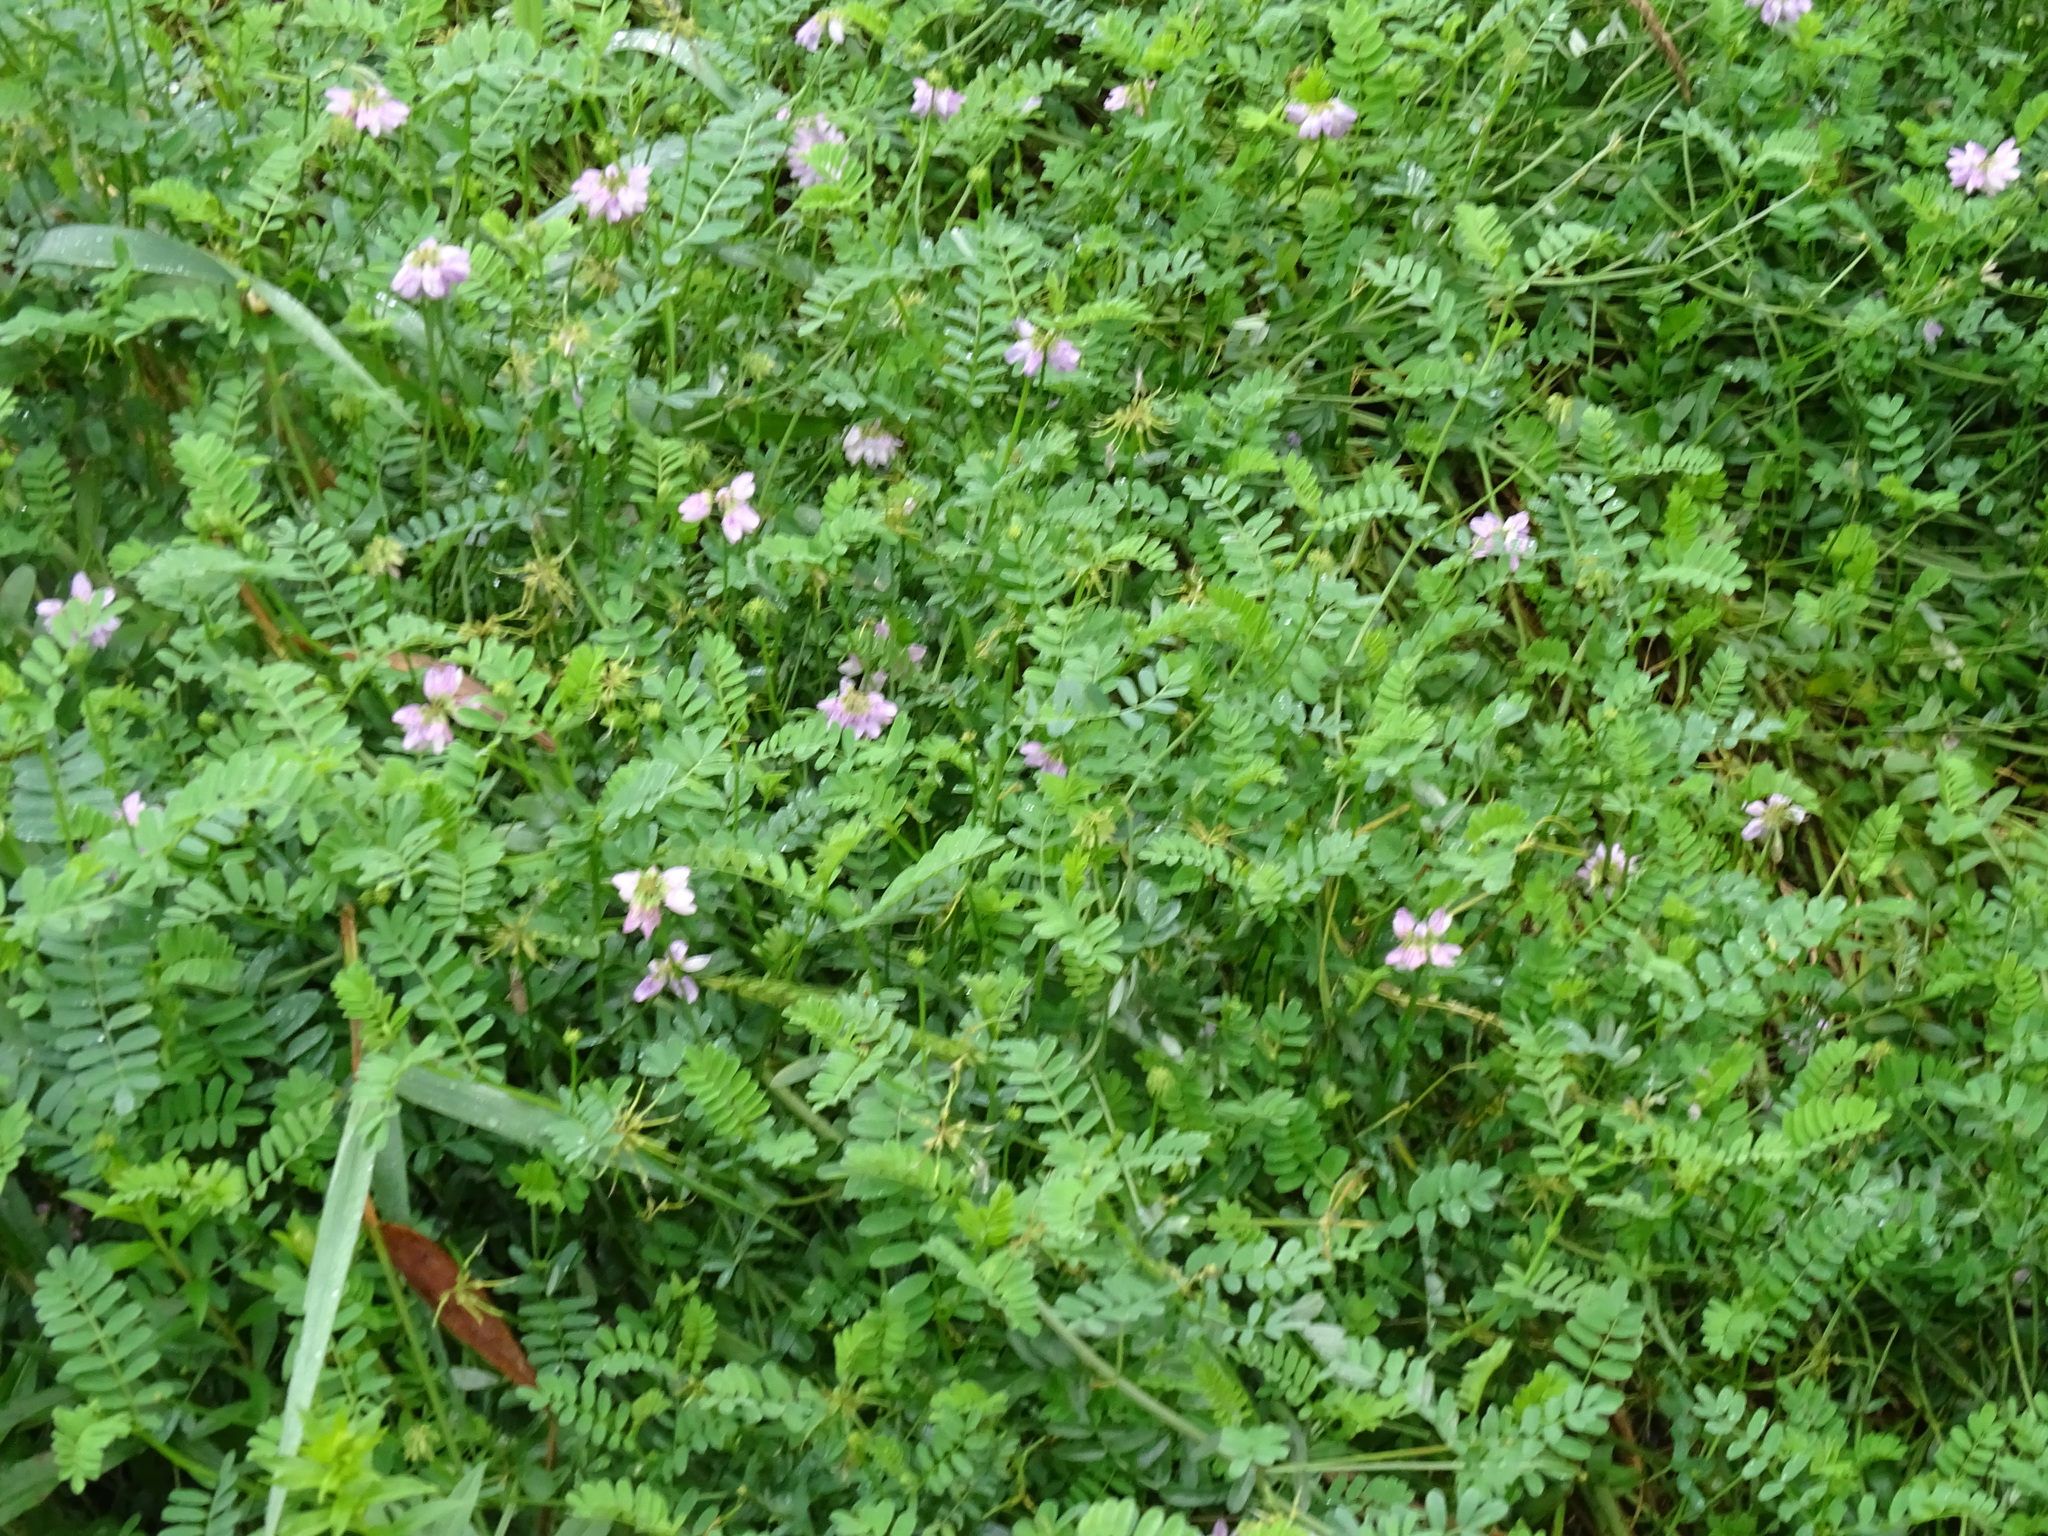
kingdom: Plantae
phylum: Tracheophyta
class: Magnoliopsida
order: Fabales
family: Fabaceae
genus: Coronilla
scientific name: Coronilla varia
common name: Crownvetch
